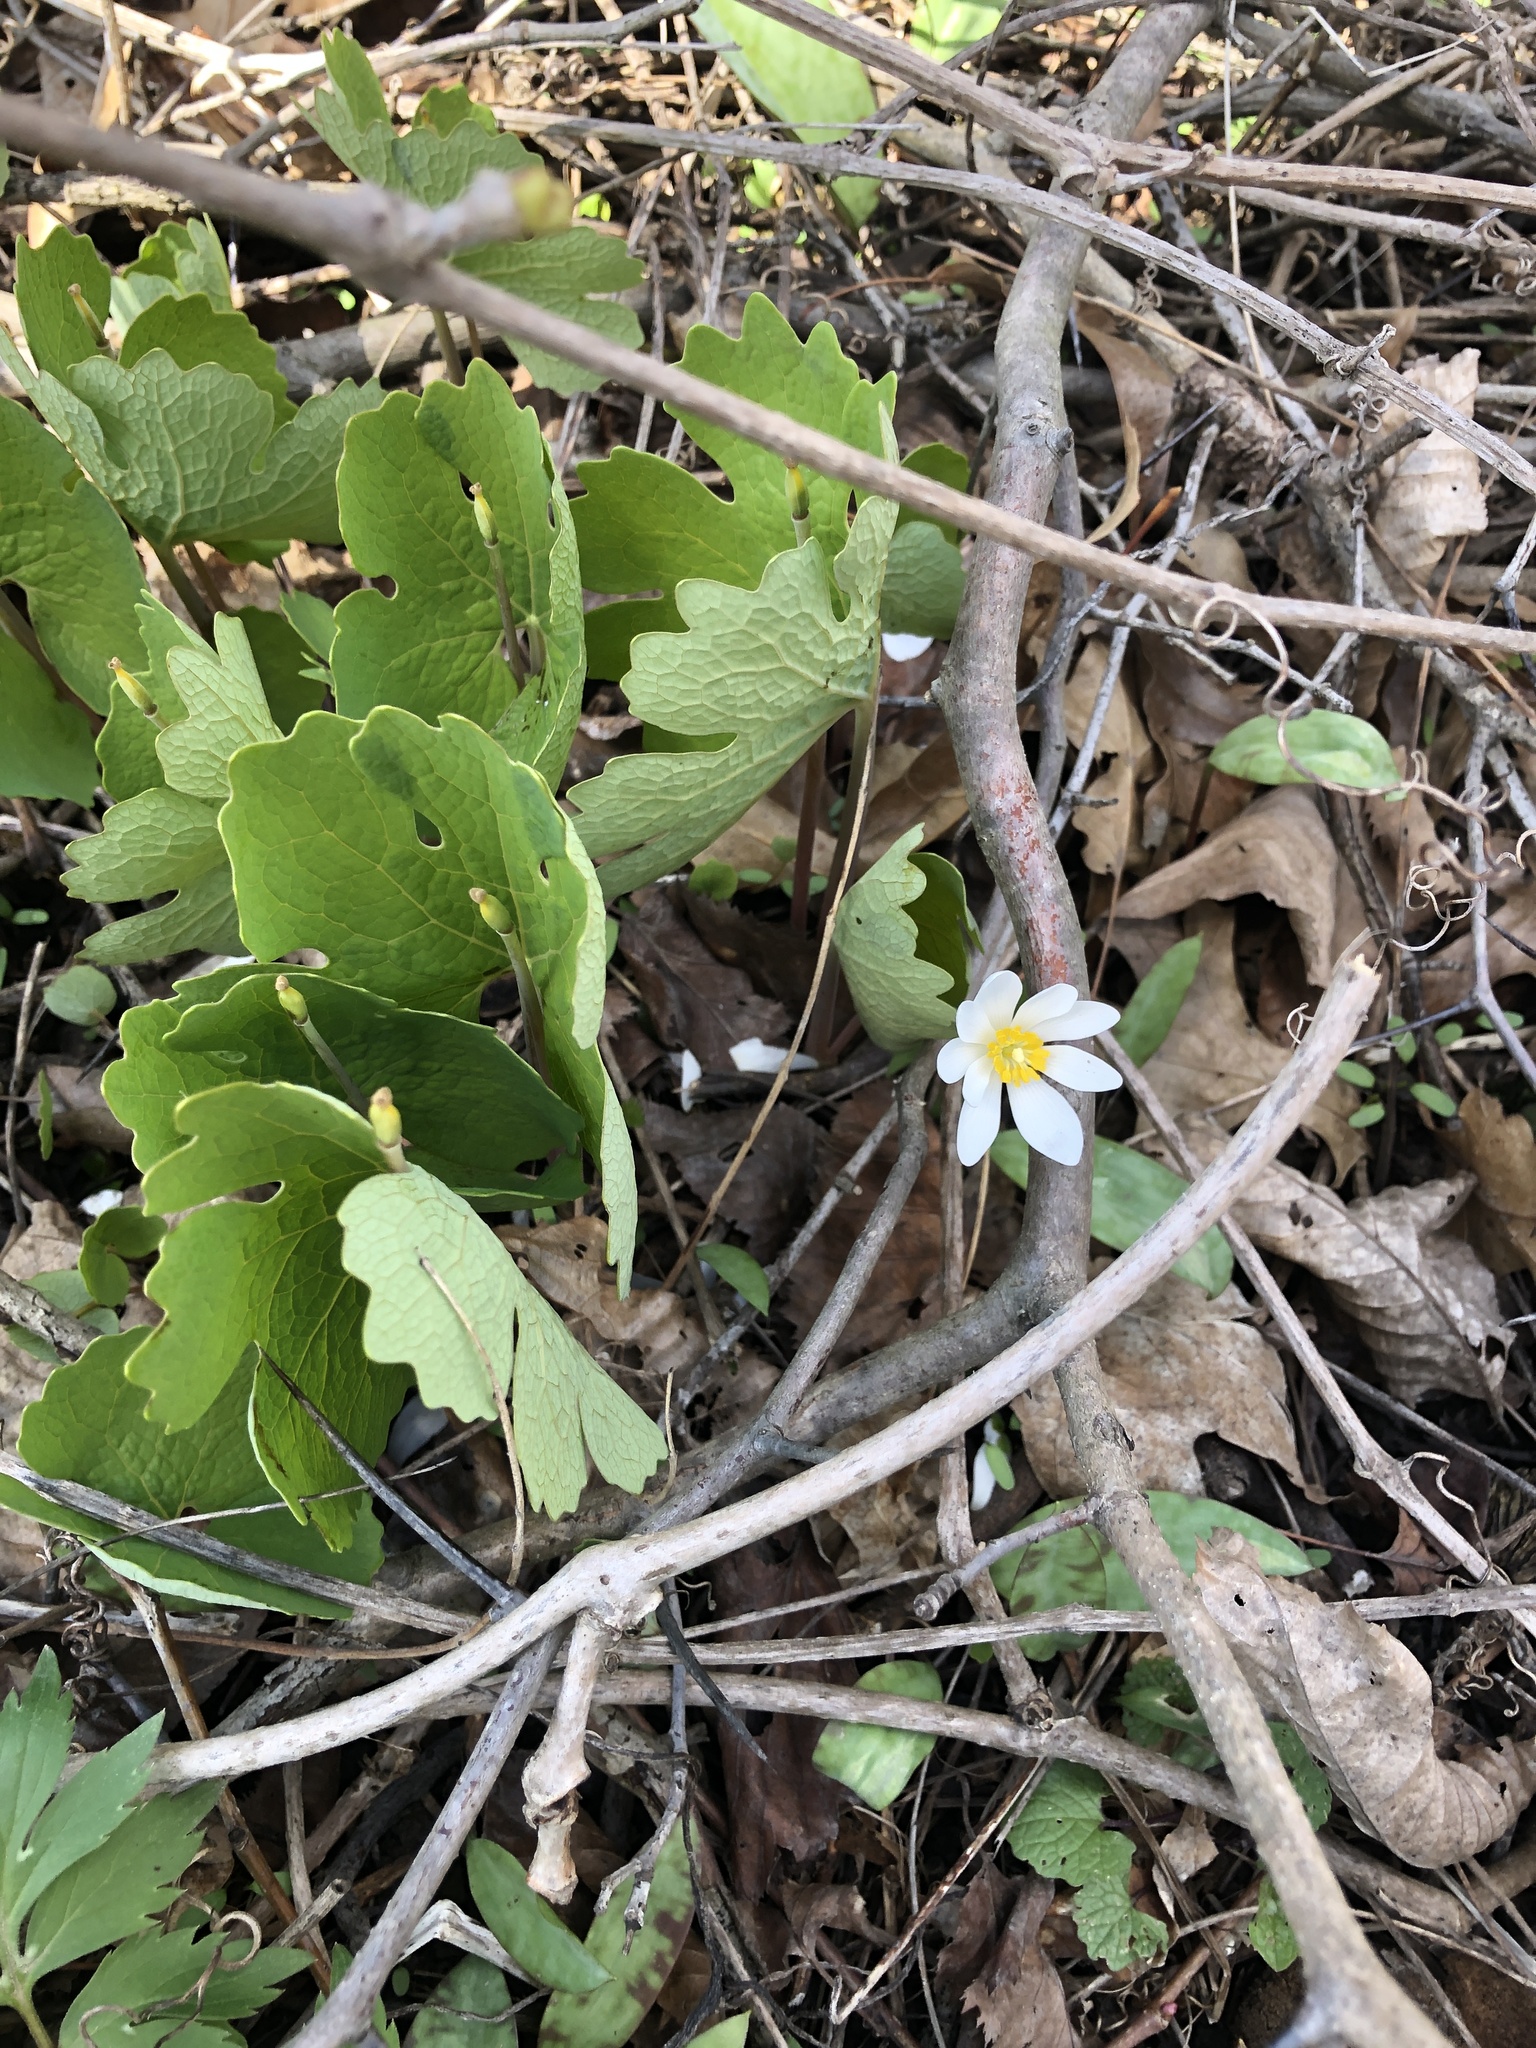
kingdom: Plantae
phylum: Tracheophyta
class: Magnoliopsida
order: Ranunculales
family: Papaveraceae
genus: Sanguinaria
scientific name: Sanguinaria canadensis
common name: Bloodroot
